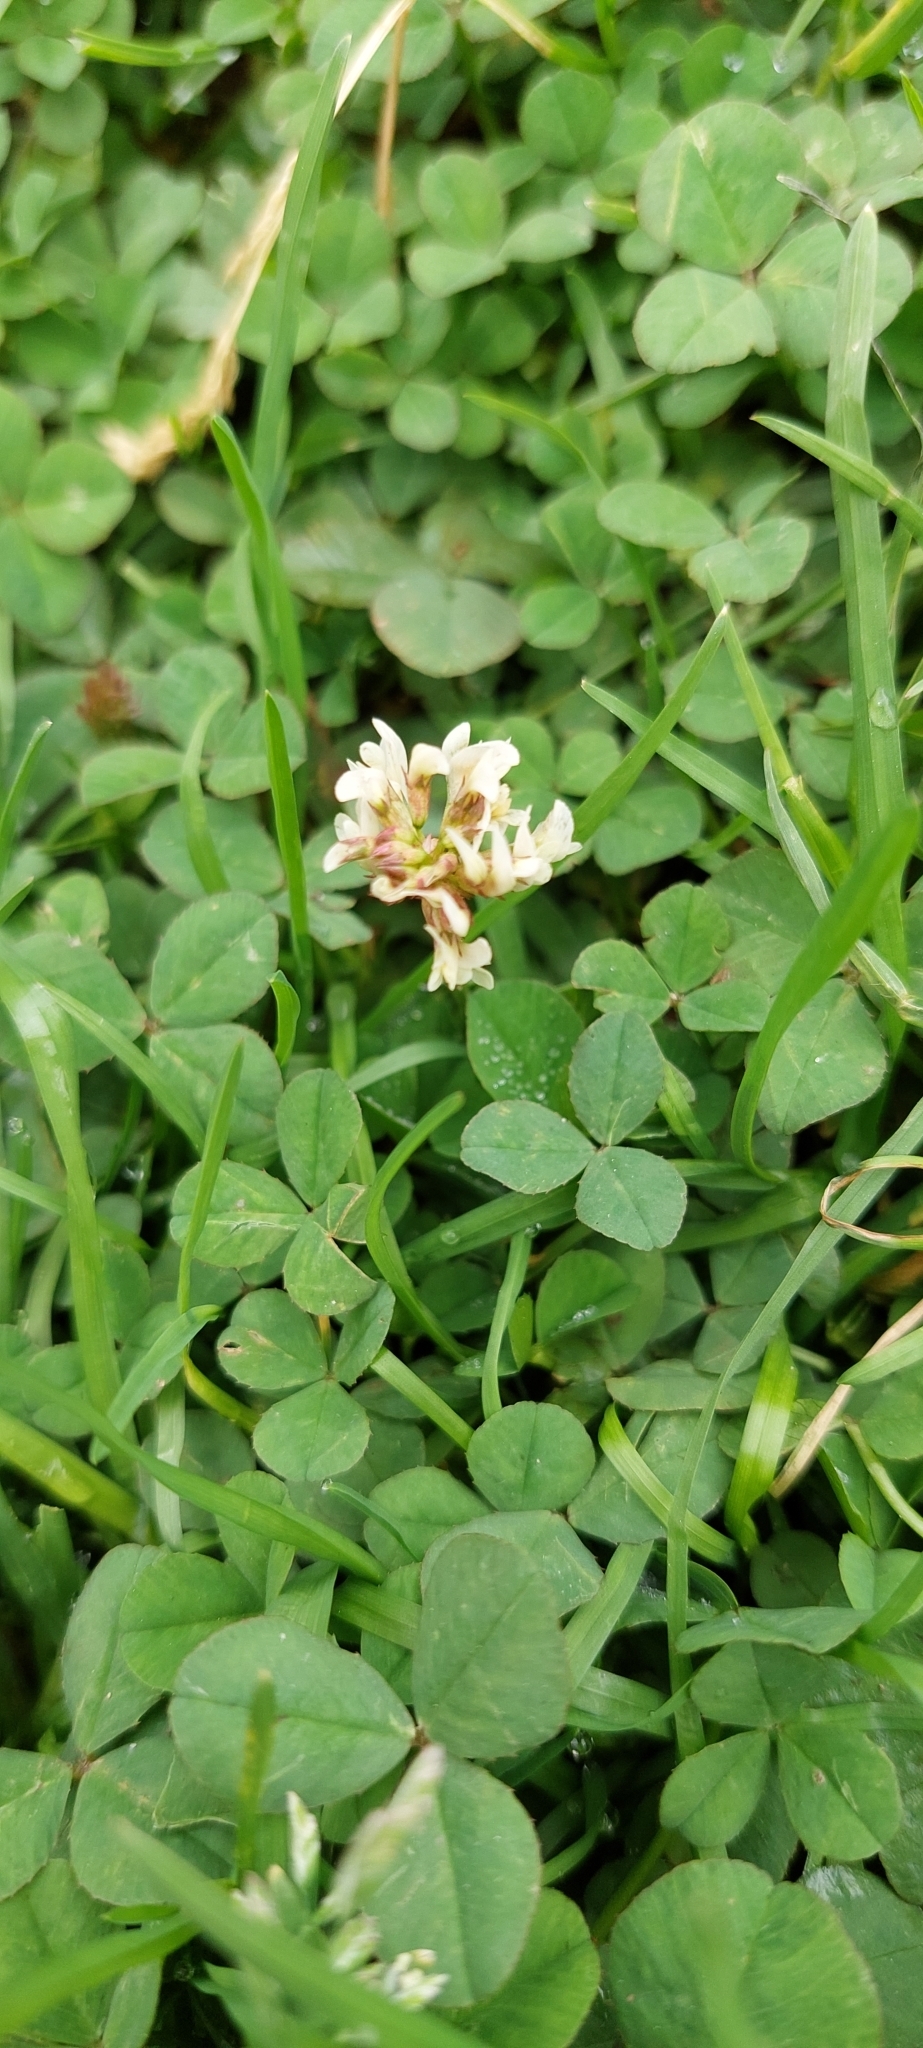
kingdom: Plantae
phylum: Tracheophyta
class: Magnoliopsida
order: Fabales
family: Fabaceae
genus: Trifolium
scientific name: Trifolium repens
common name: White clover
